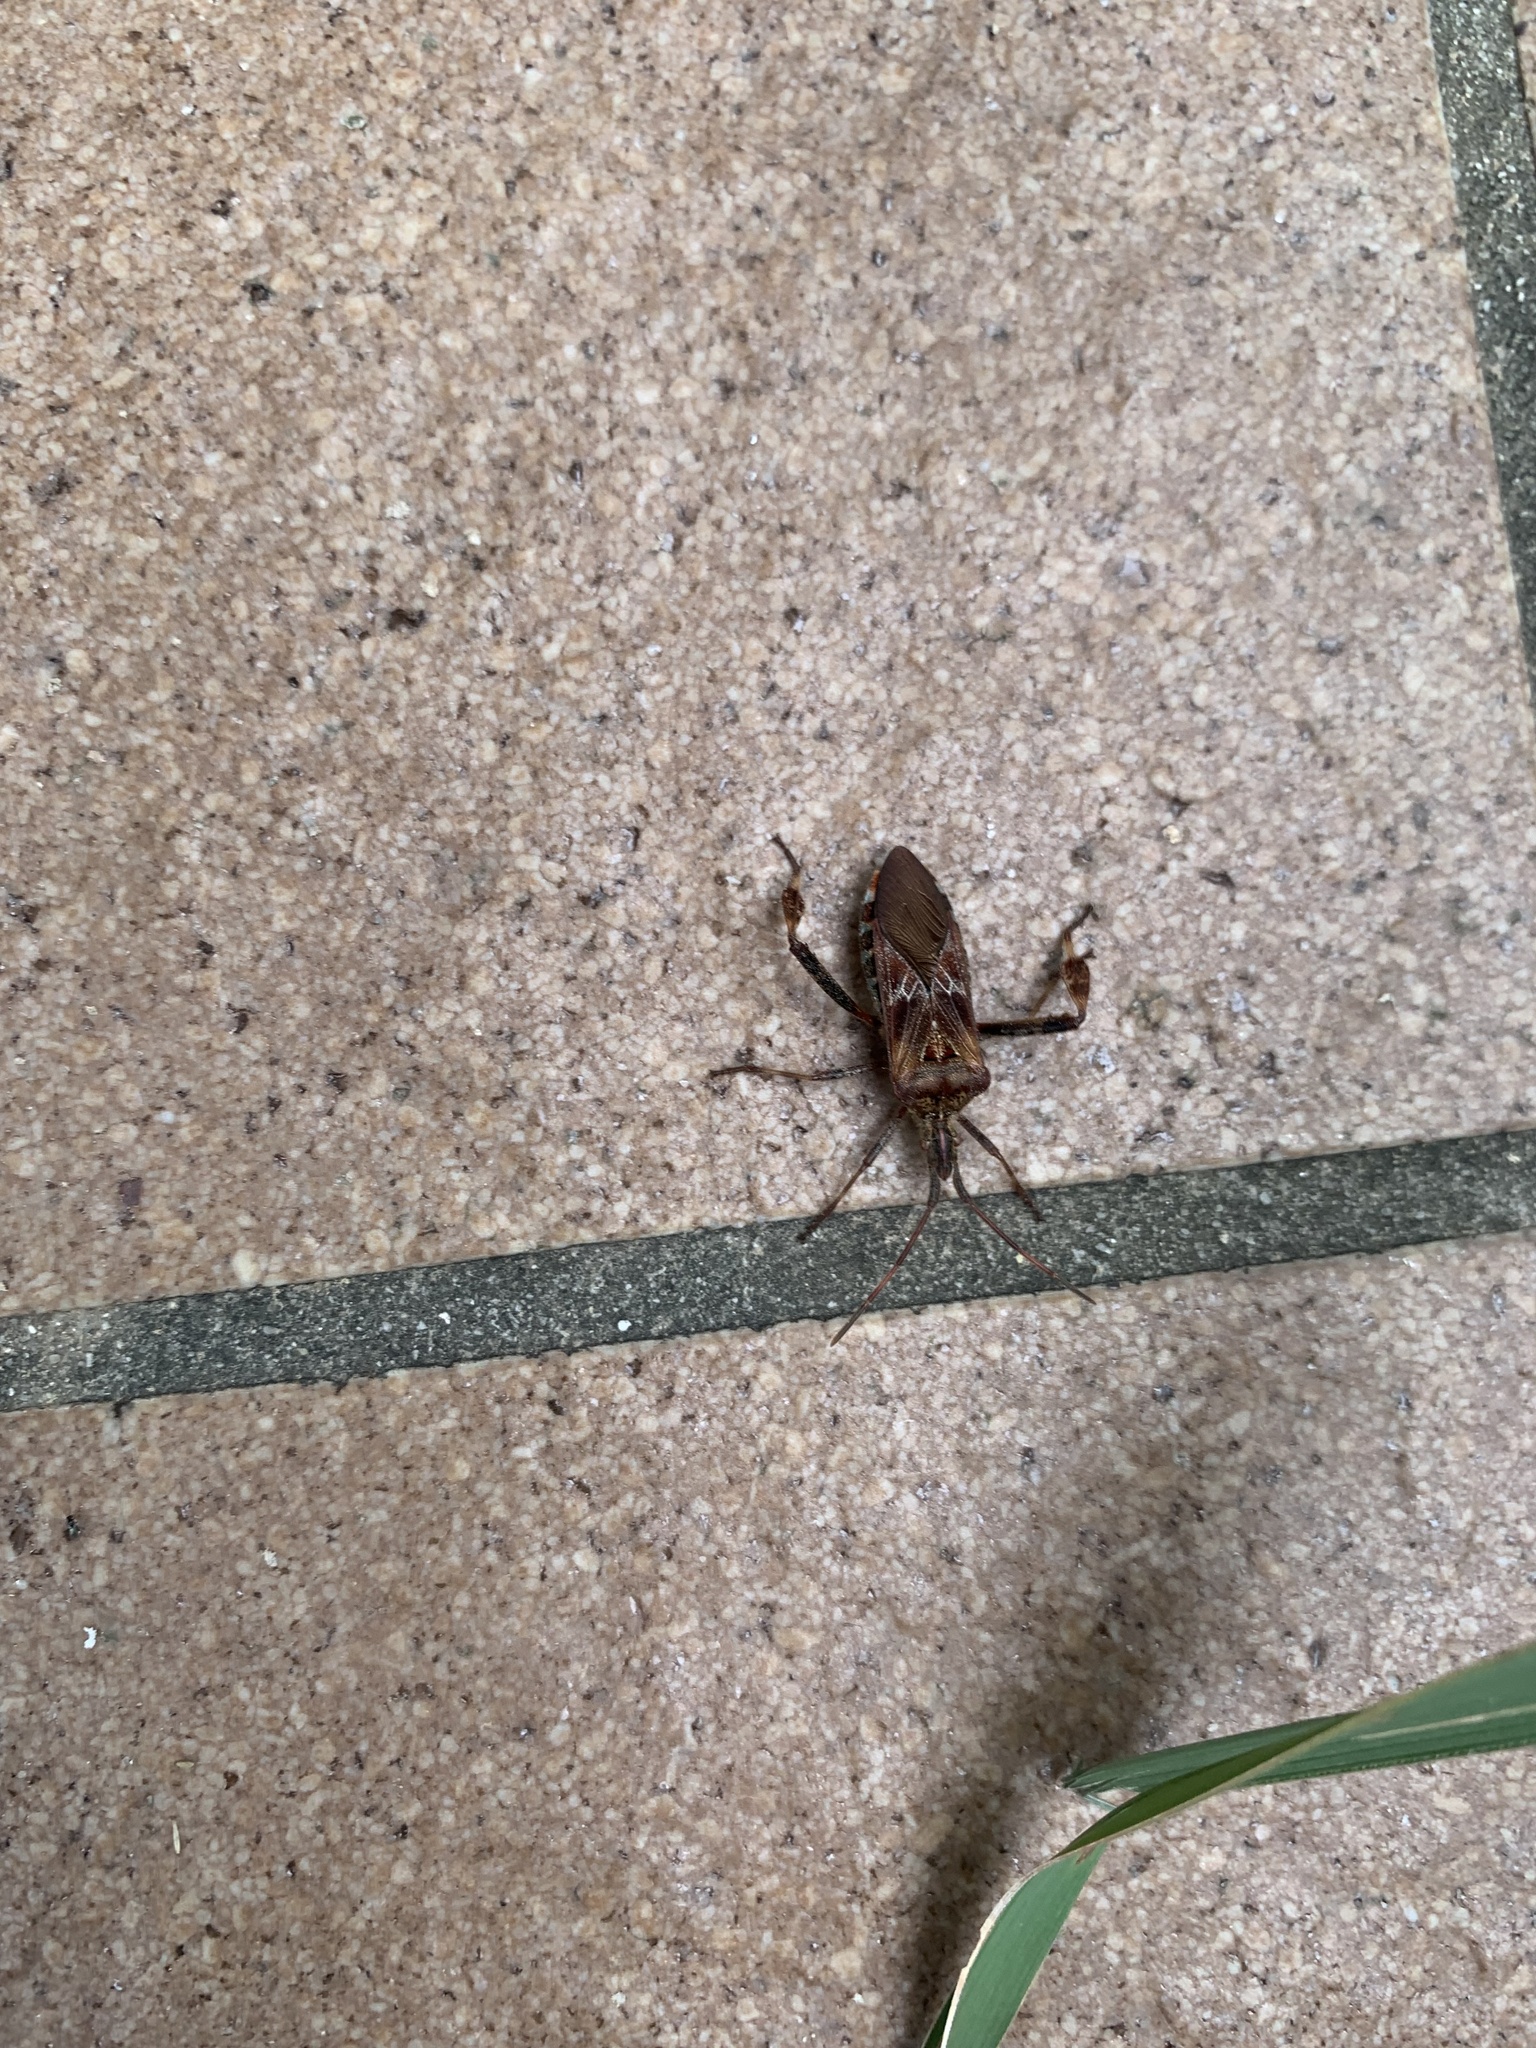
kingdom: Animalia
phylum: Arthropoda
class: Insecta
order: Hemiptera
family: Coreidae
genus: Leptoglossus
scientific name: Leptoglossus occidentalis
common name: Western conifer-seed bug
